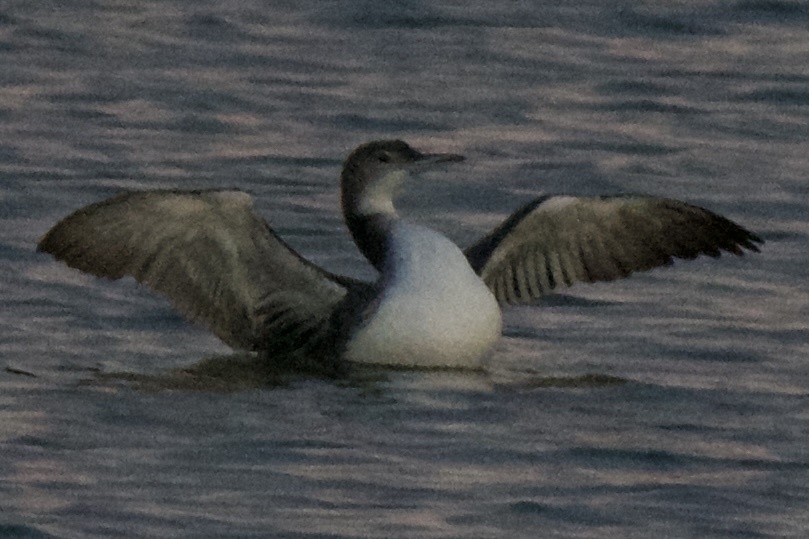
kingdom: Animalia
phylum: Chordata
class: Aves
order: Gaviiformes
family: Gaviidae
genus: Gavia
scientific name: Gavia immer
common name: Common loon
